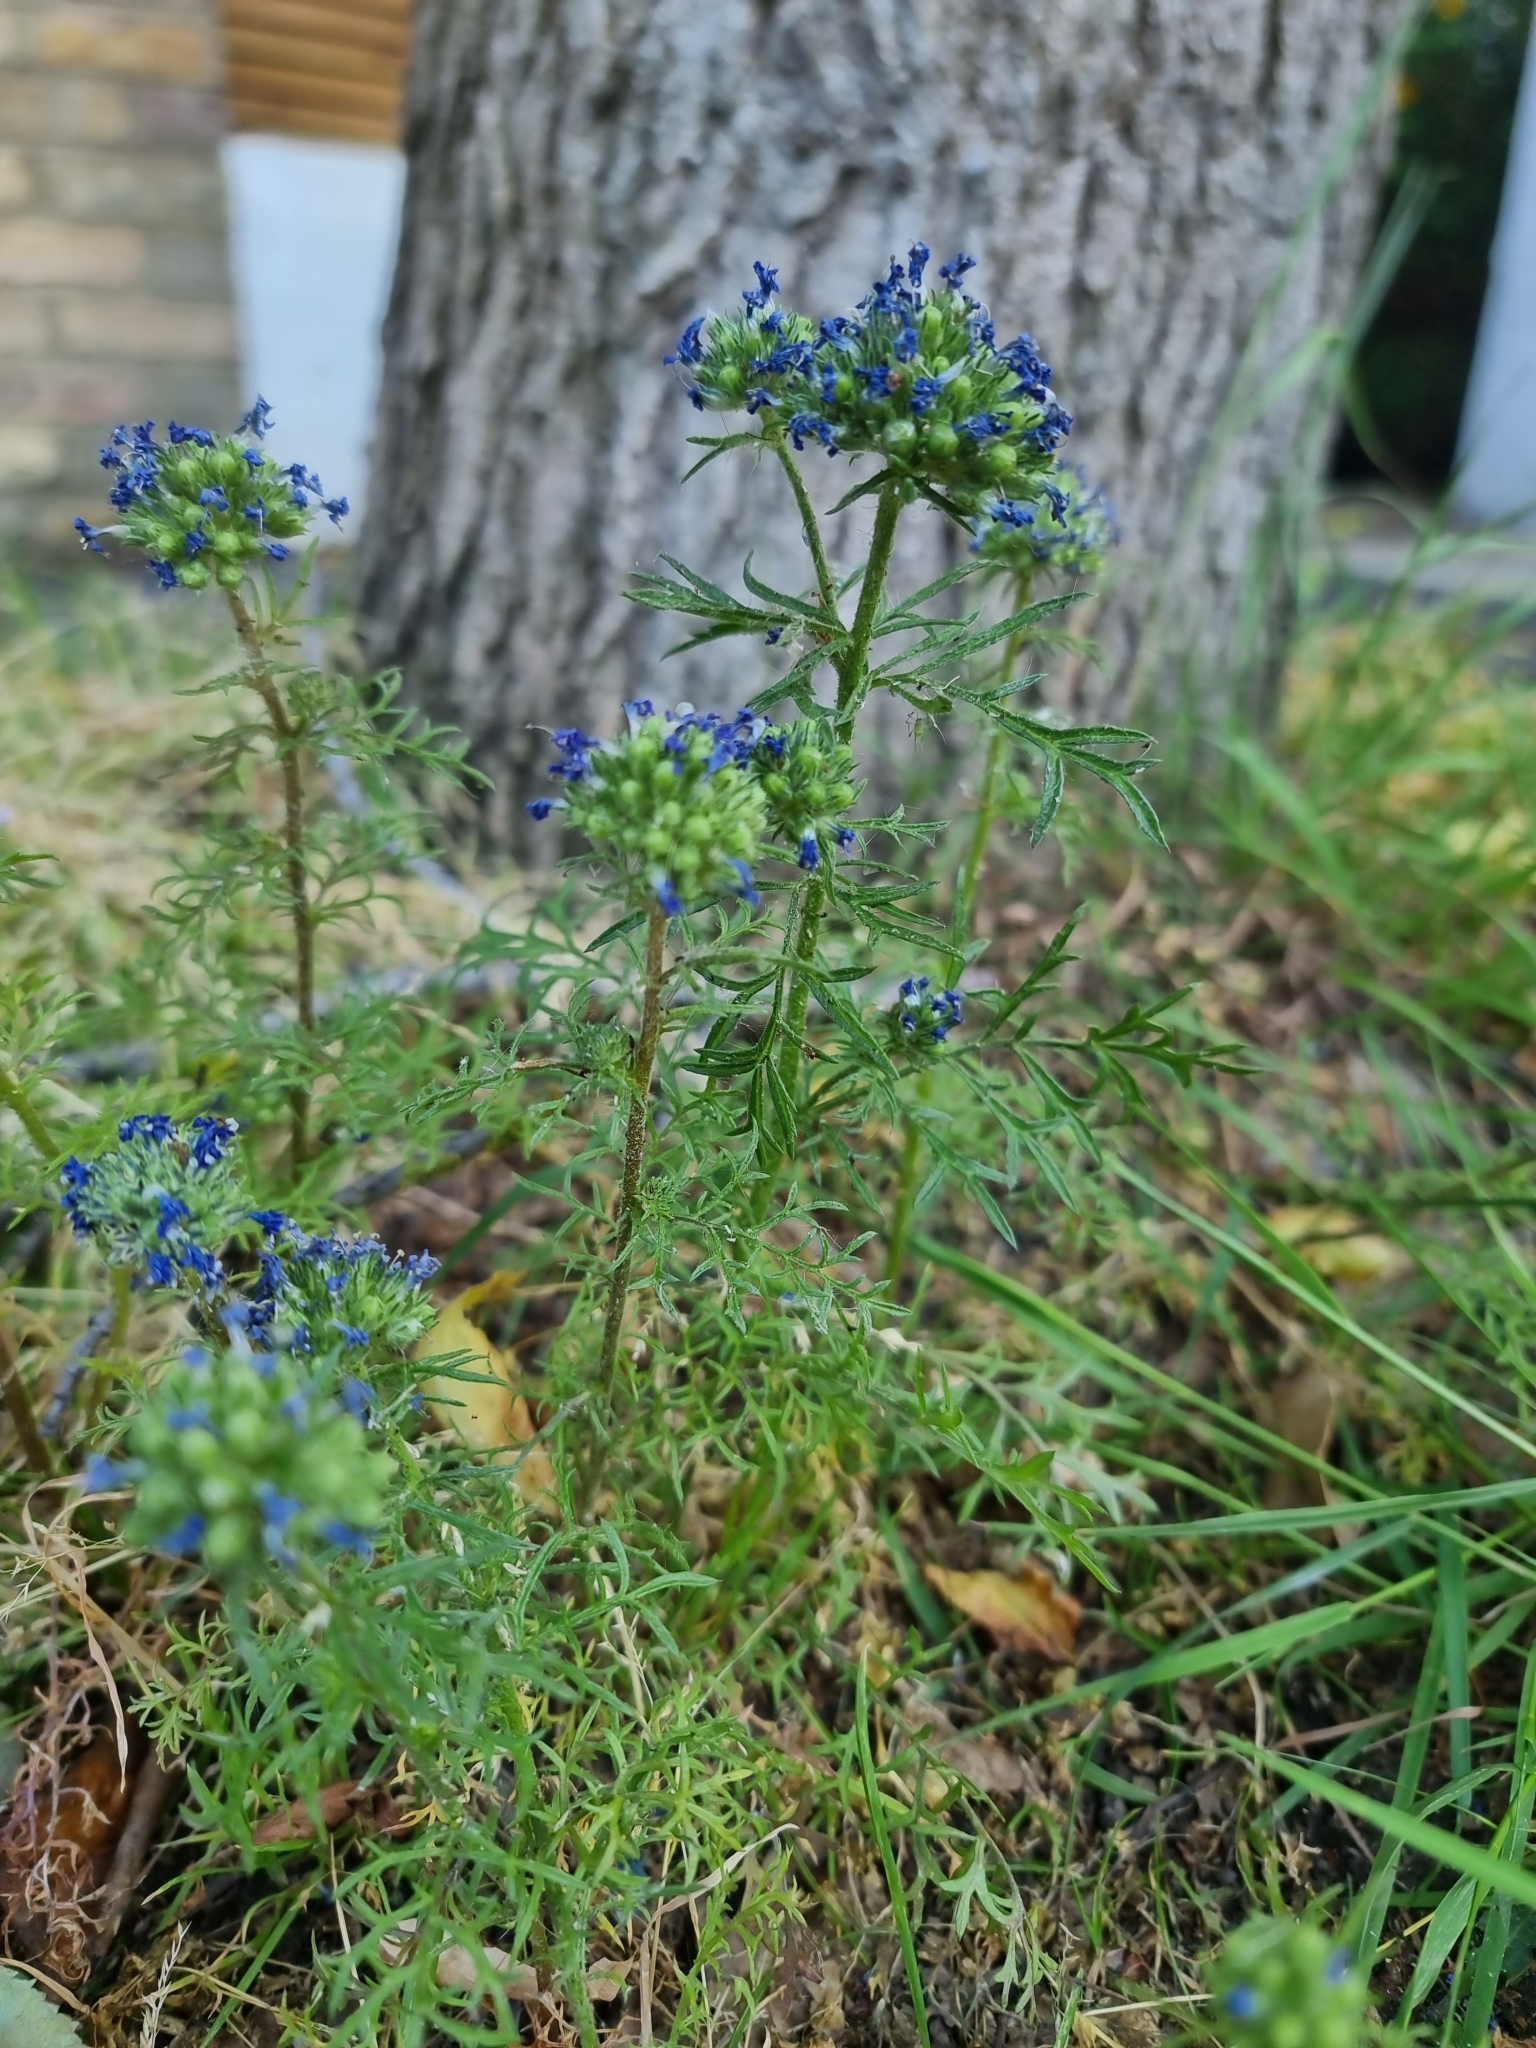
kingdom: Plantae
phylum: Tracheophyta
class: Magnoliopsida
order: Ericales
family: Polemoniaceae
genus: Gilia
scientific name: Gilia capitata
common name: Bluehead gilia
